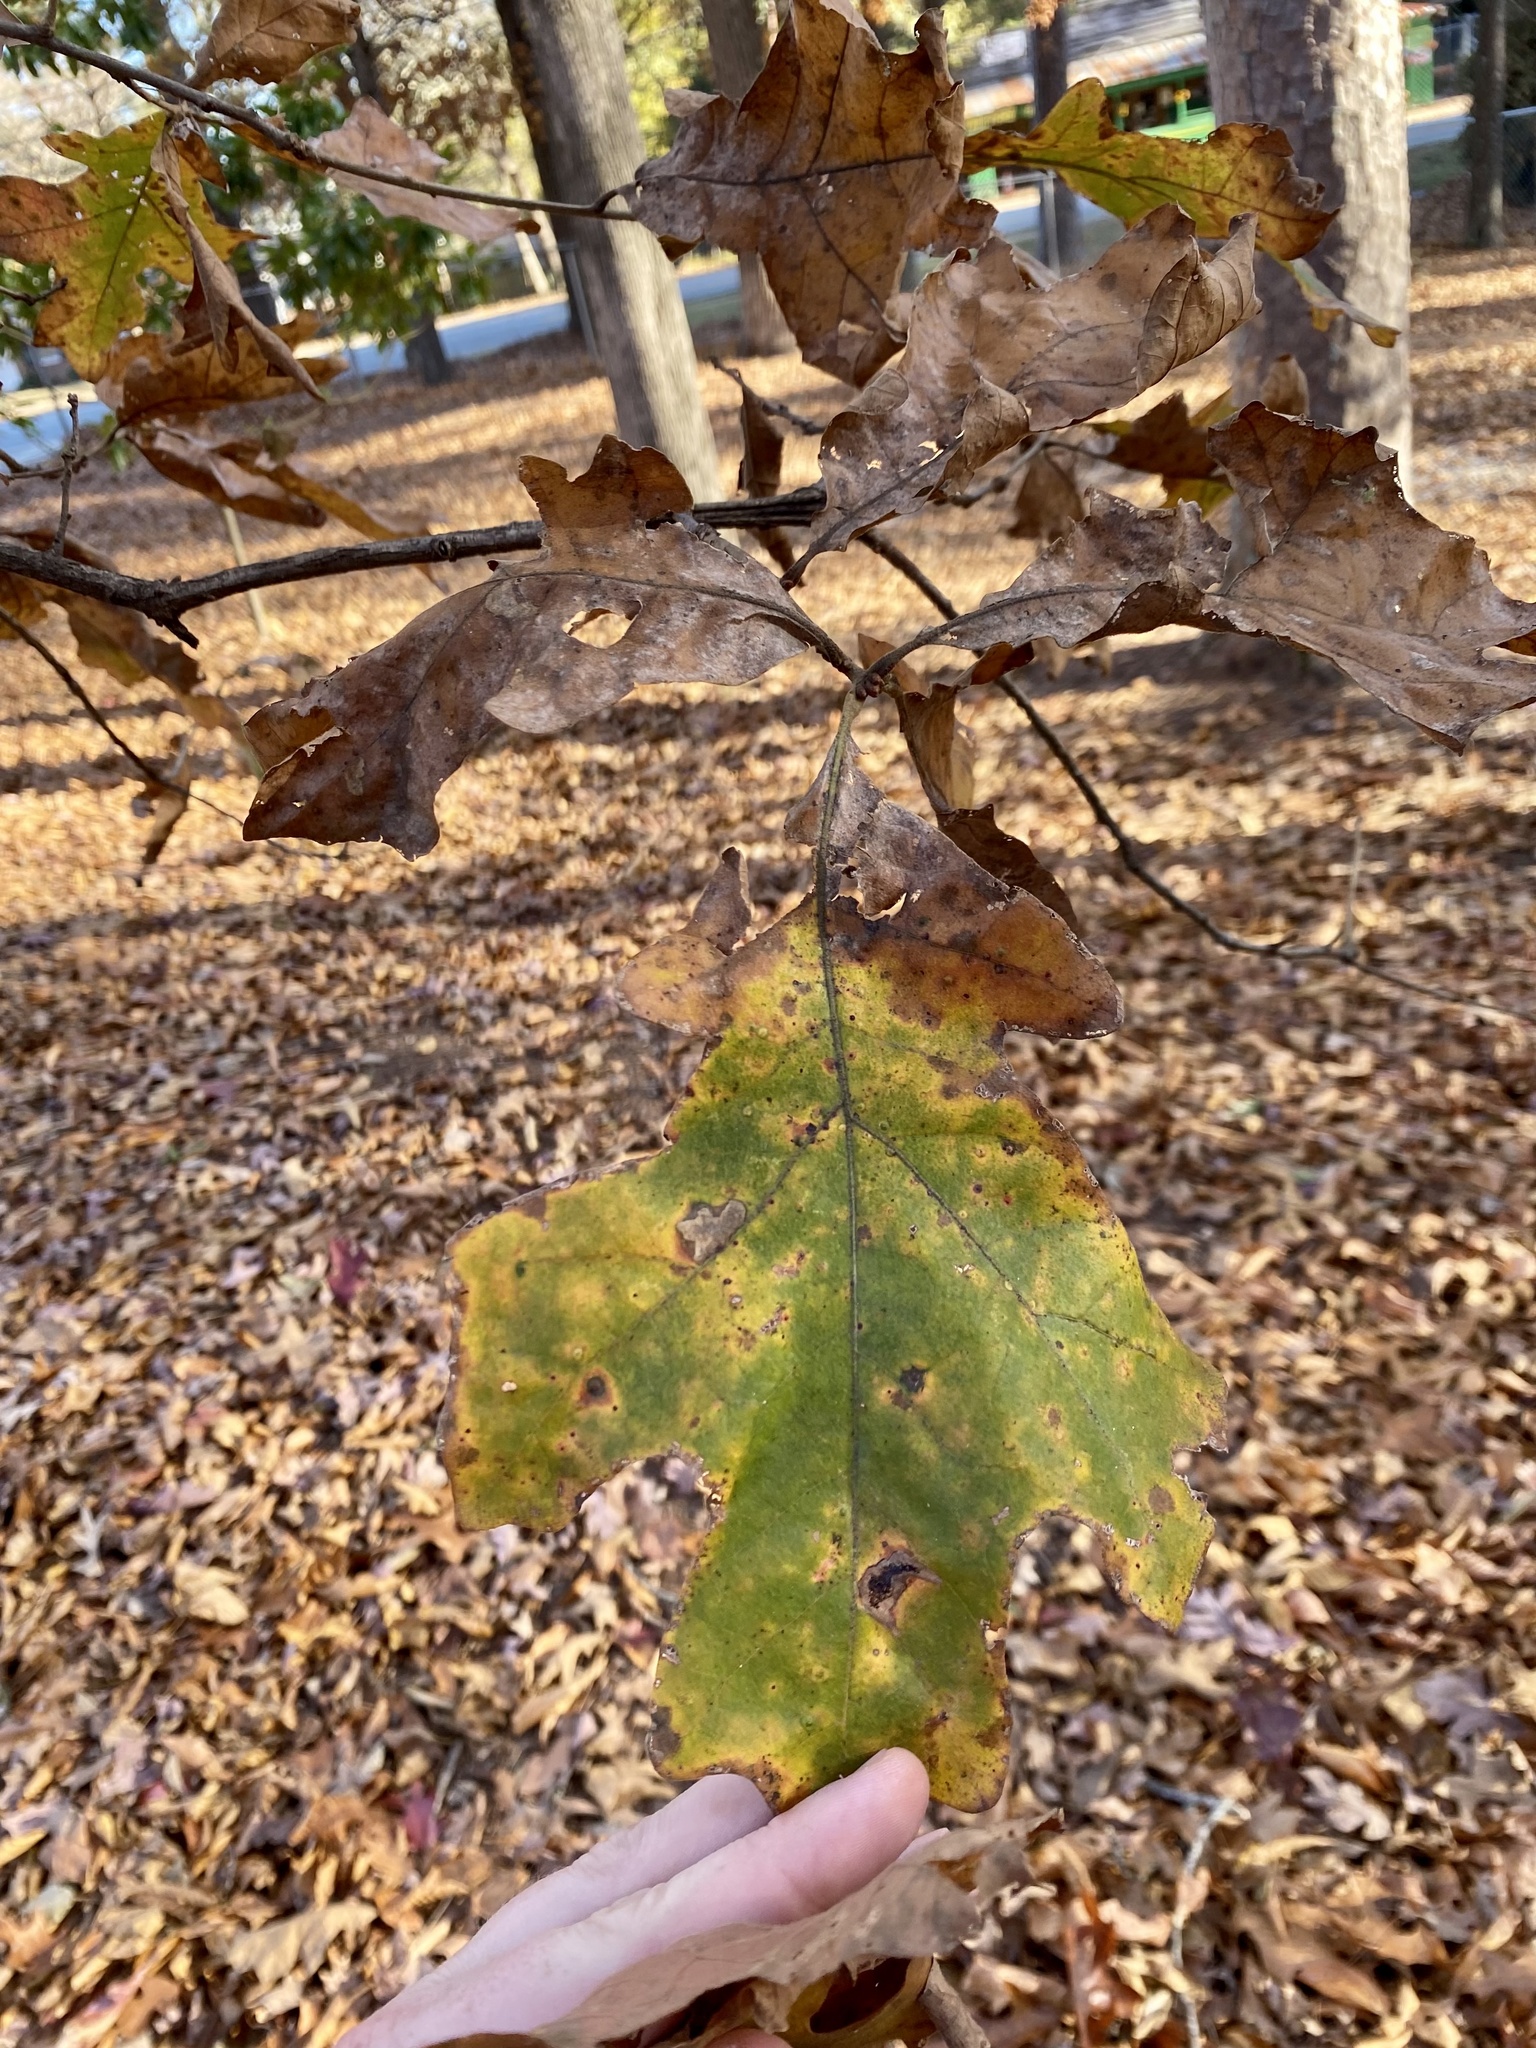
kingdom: Plantae
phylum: Tracheophyta
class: Magnoliopsida
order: Fagales
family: Fagaceae
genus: Quercus
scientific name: Quercus stellata
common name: Post oak
